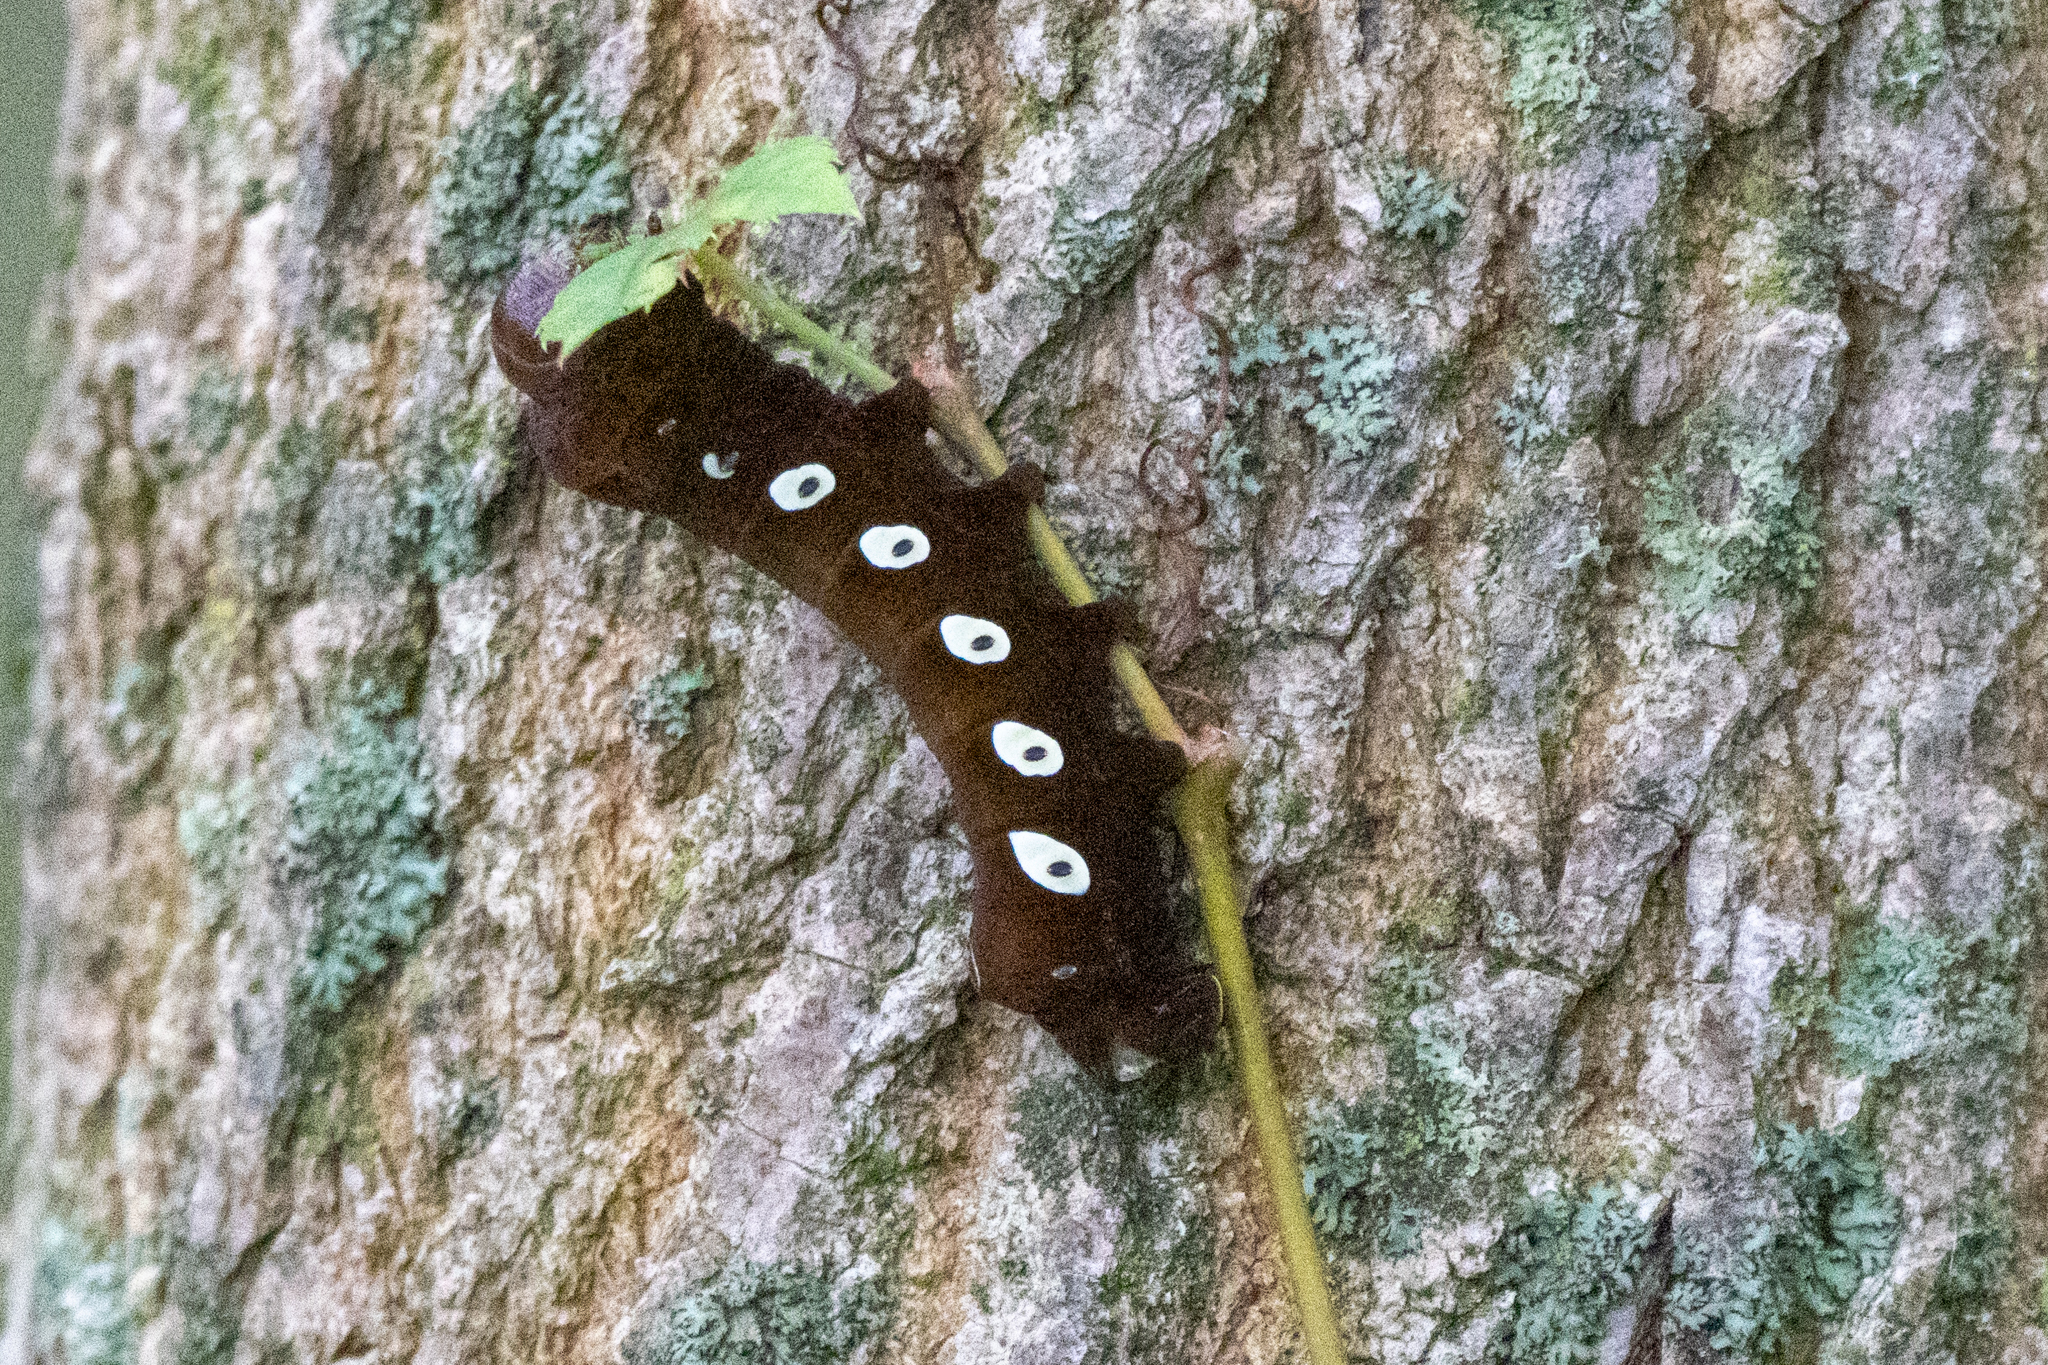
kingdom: Animalia
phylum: Arthropoda
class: Insecta
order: Lepidoptera
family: Sphingidae
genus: Eumorpha
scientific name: Eumorpha pandorus
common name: Pandora sphinx
